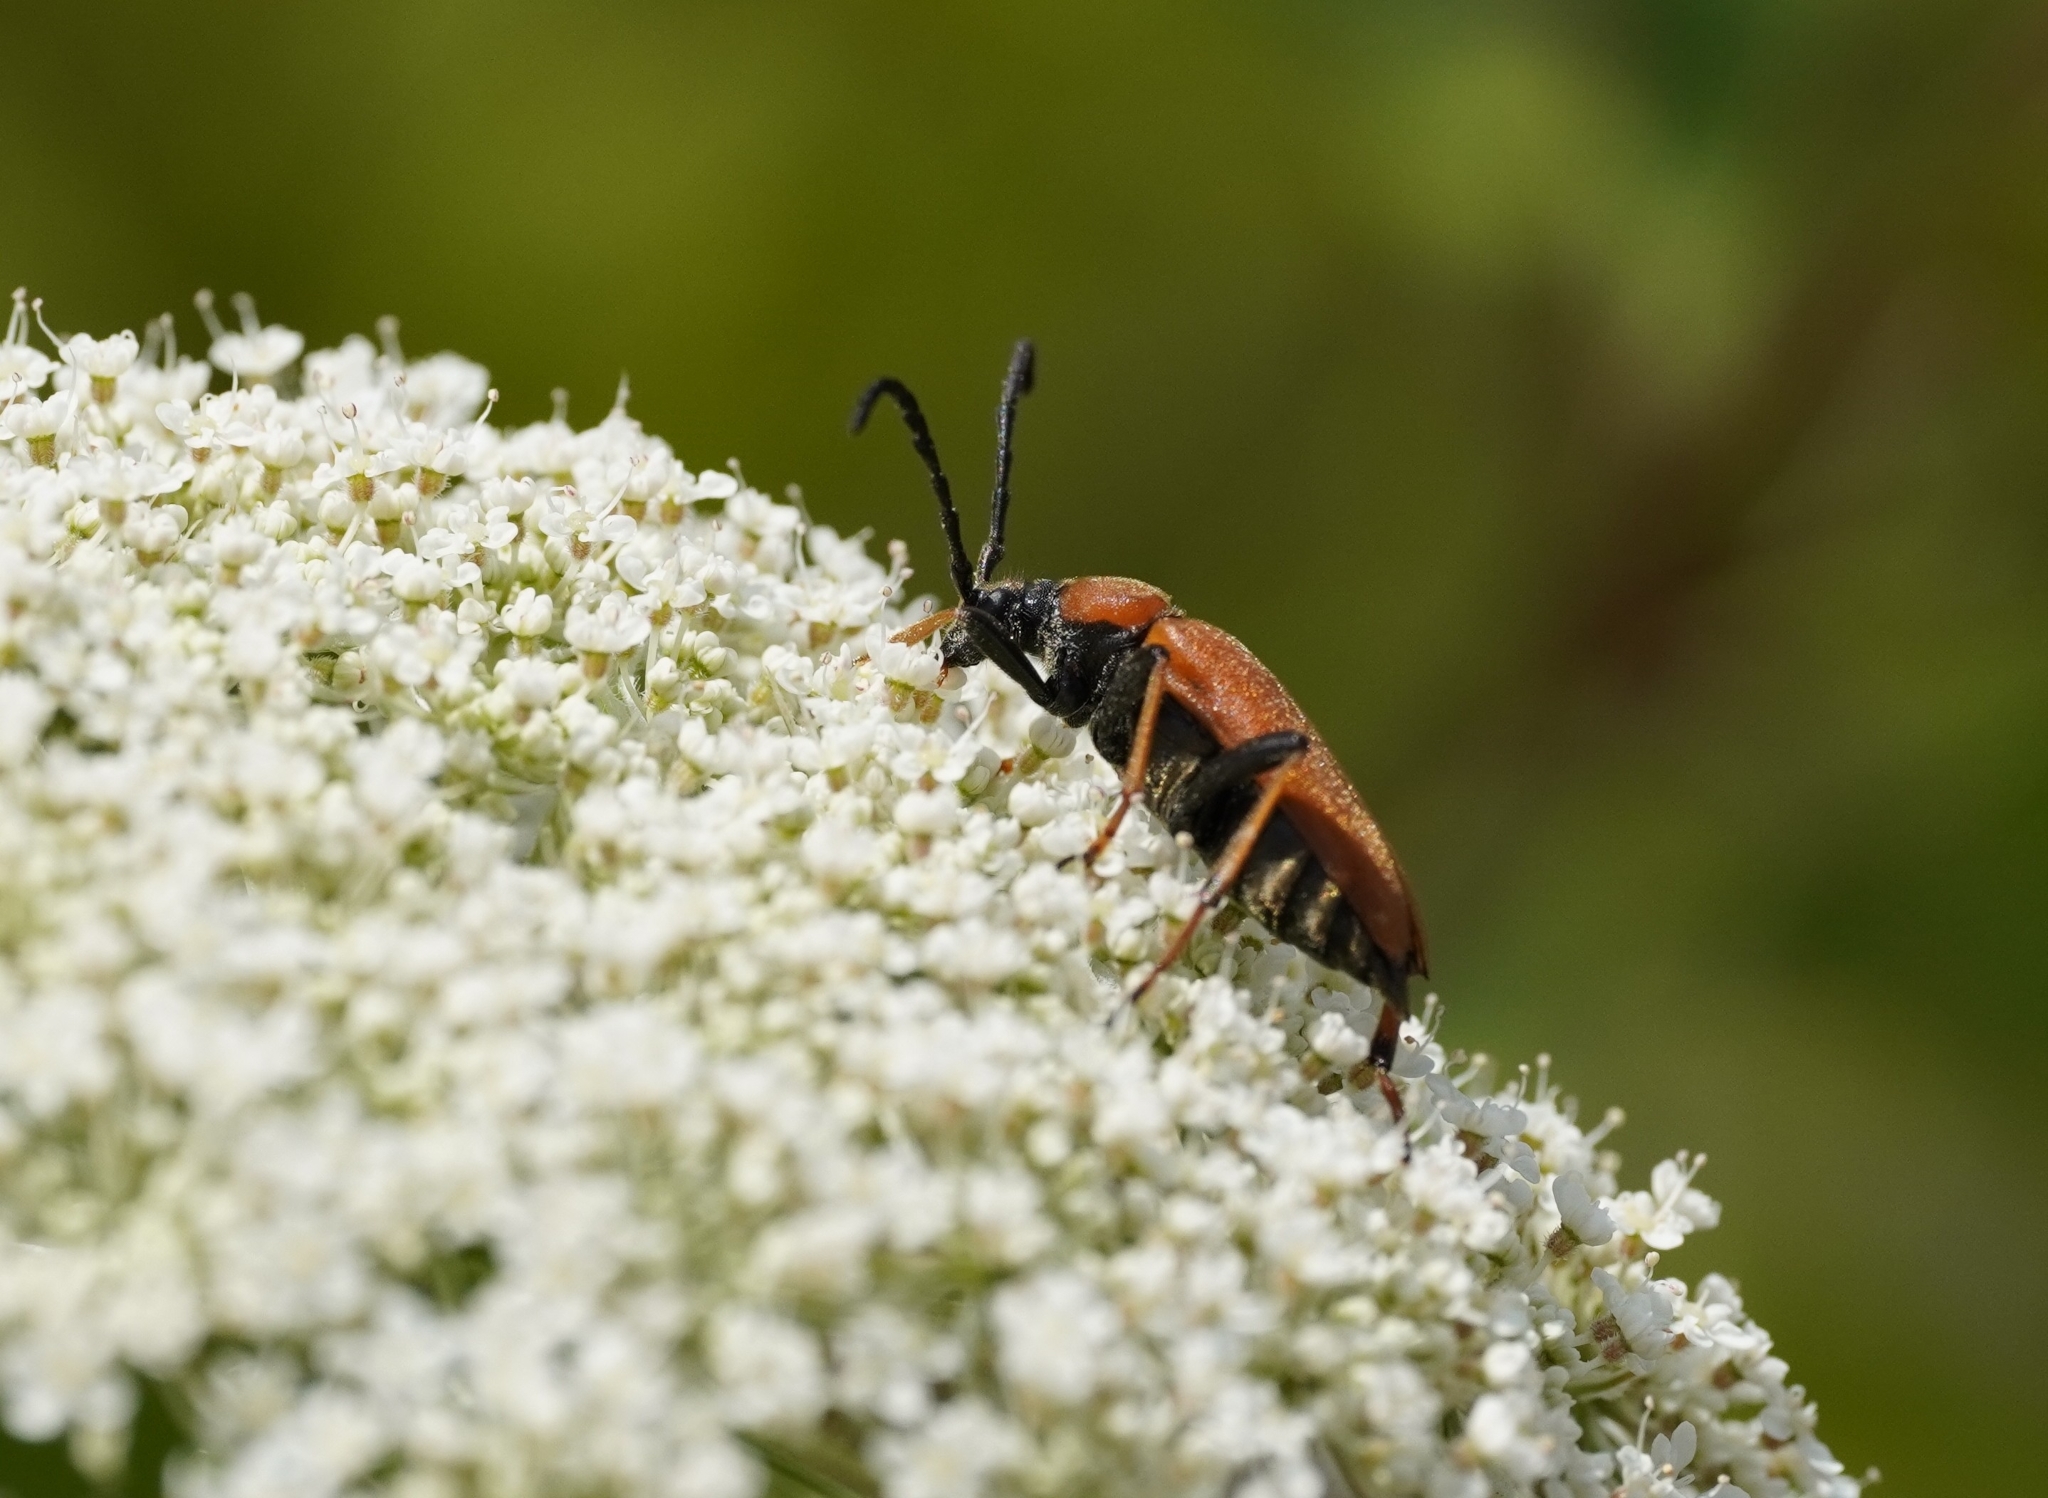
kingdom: Animalia
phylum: Arthropoda
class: Insecta
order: Coleoptera
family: Cerambycidae
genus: Stictoleptura
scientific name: Stictoleptura rubra
